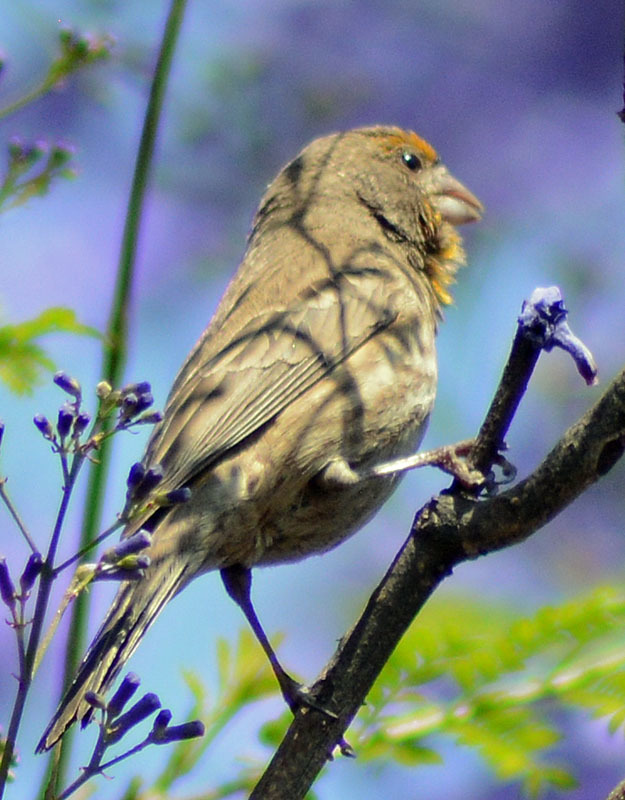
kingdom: Animalia
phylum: Chordata
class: Aves
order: Passeriformes
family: Fringillidae
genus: Haemorhous
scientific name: Haemorhous mexicanus
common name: House finch
